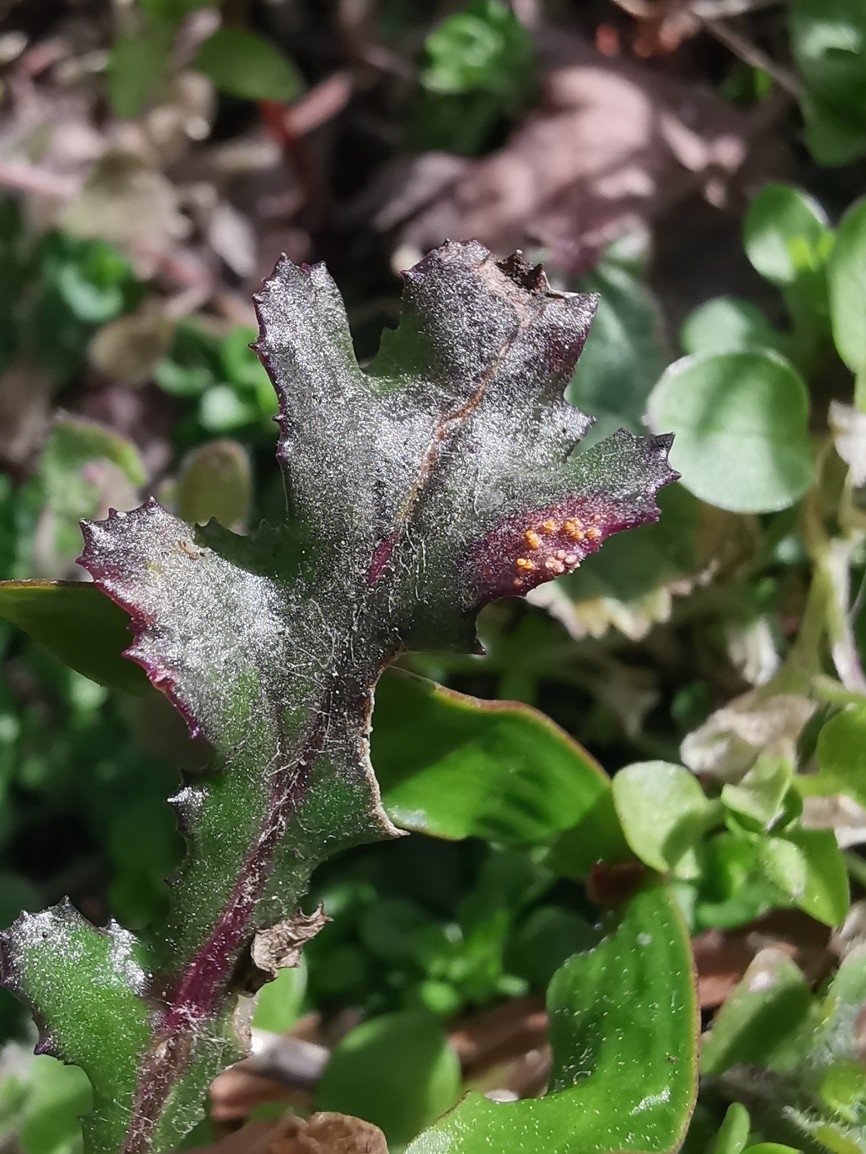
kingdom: Fungi
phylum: Basidiomycota
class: Pucciniomycetes
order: Pucciniales
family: Pucciniaceae
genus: Puccinia
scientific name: Puccinia lagenophorae
